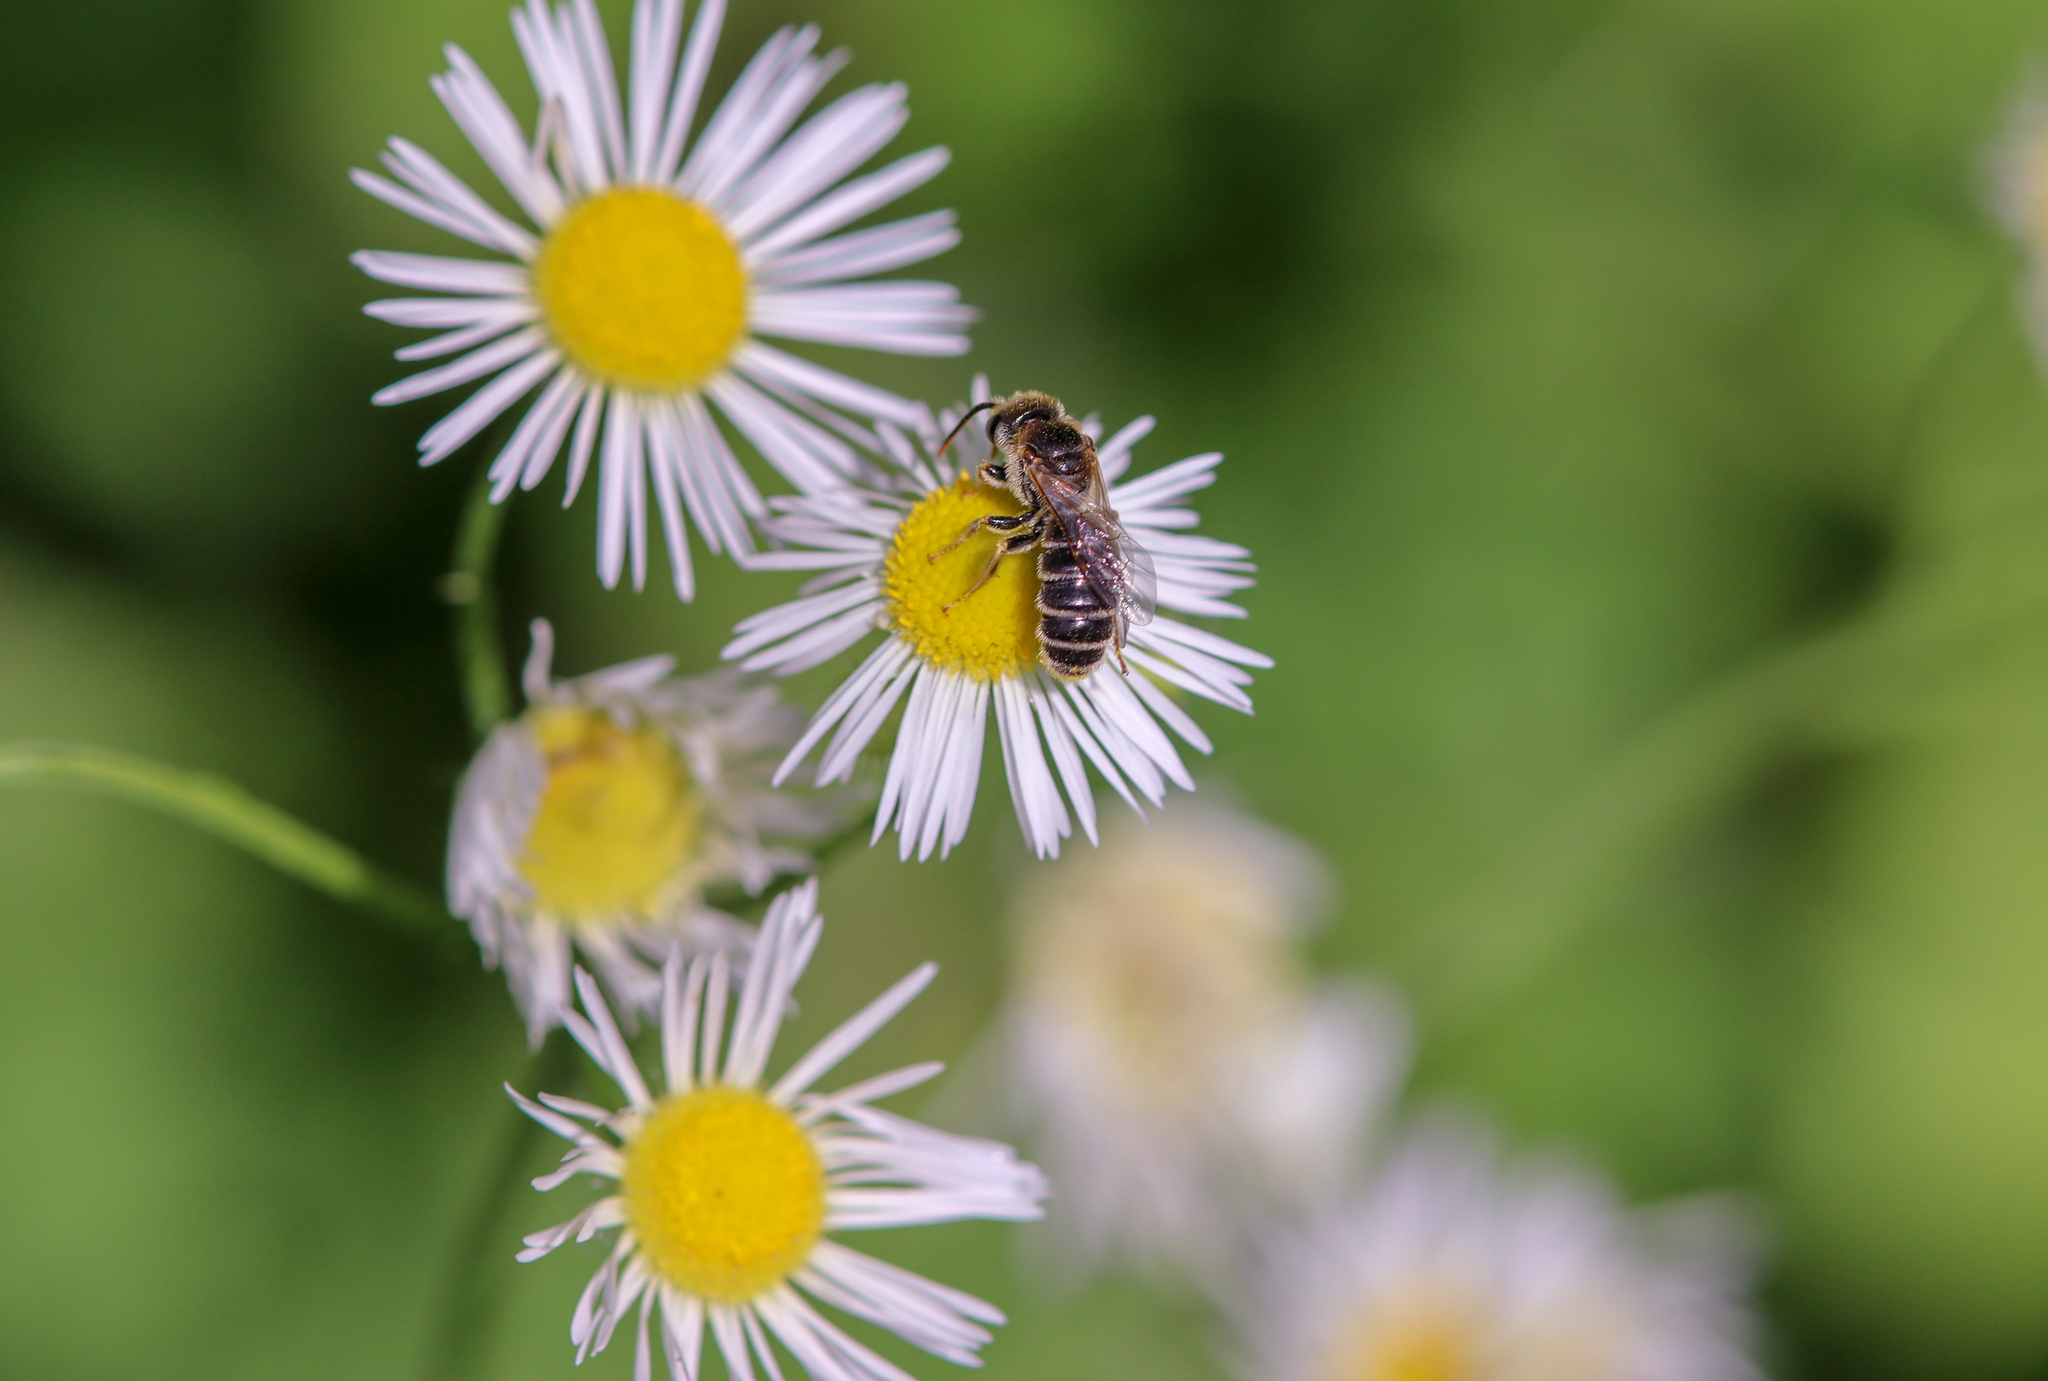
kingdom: Animalia
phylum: Arthropoda
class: Insecta
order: Hymenoptera
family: Halictidae
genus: Halictus
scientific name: Halictus ligatus
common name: Ligated furrow bee
